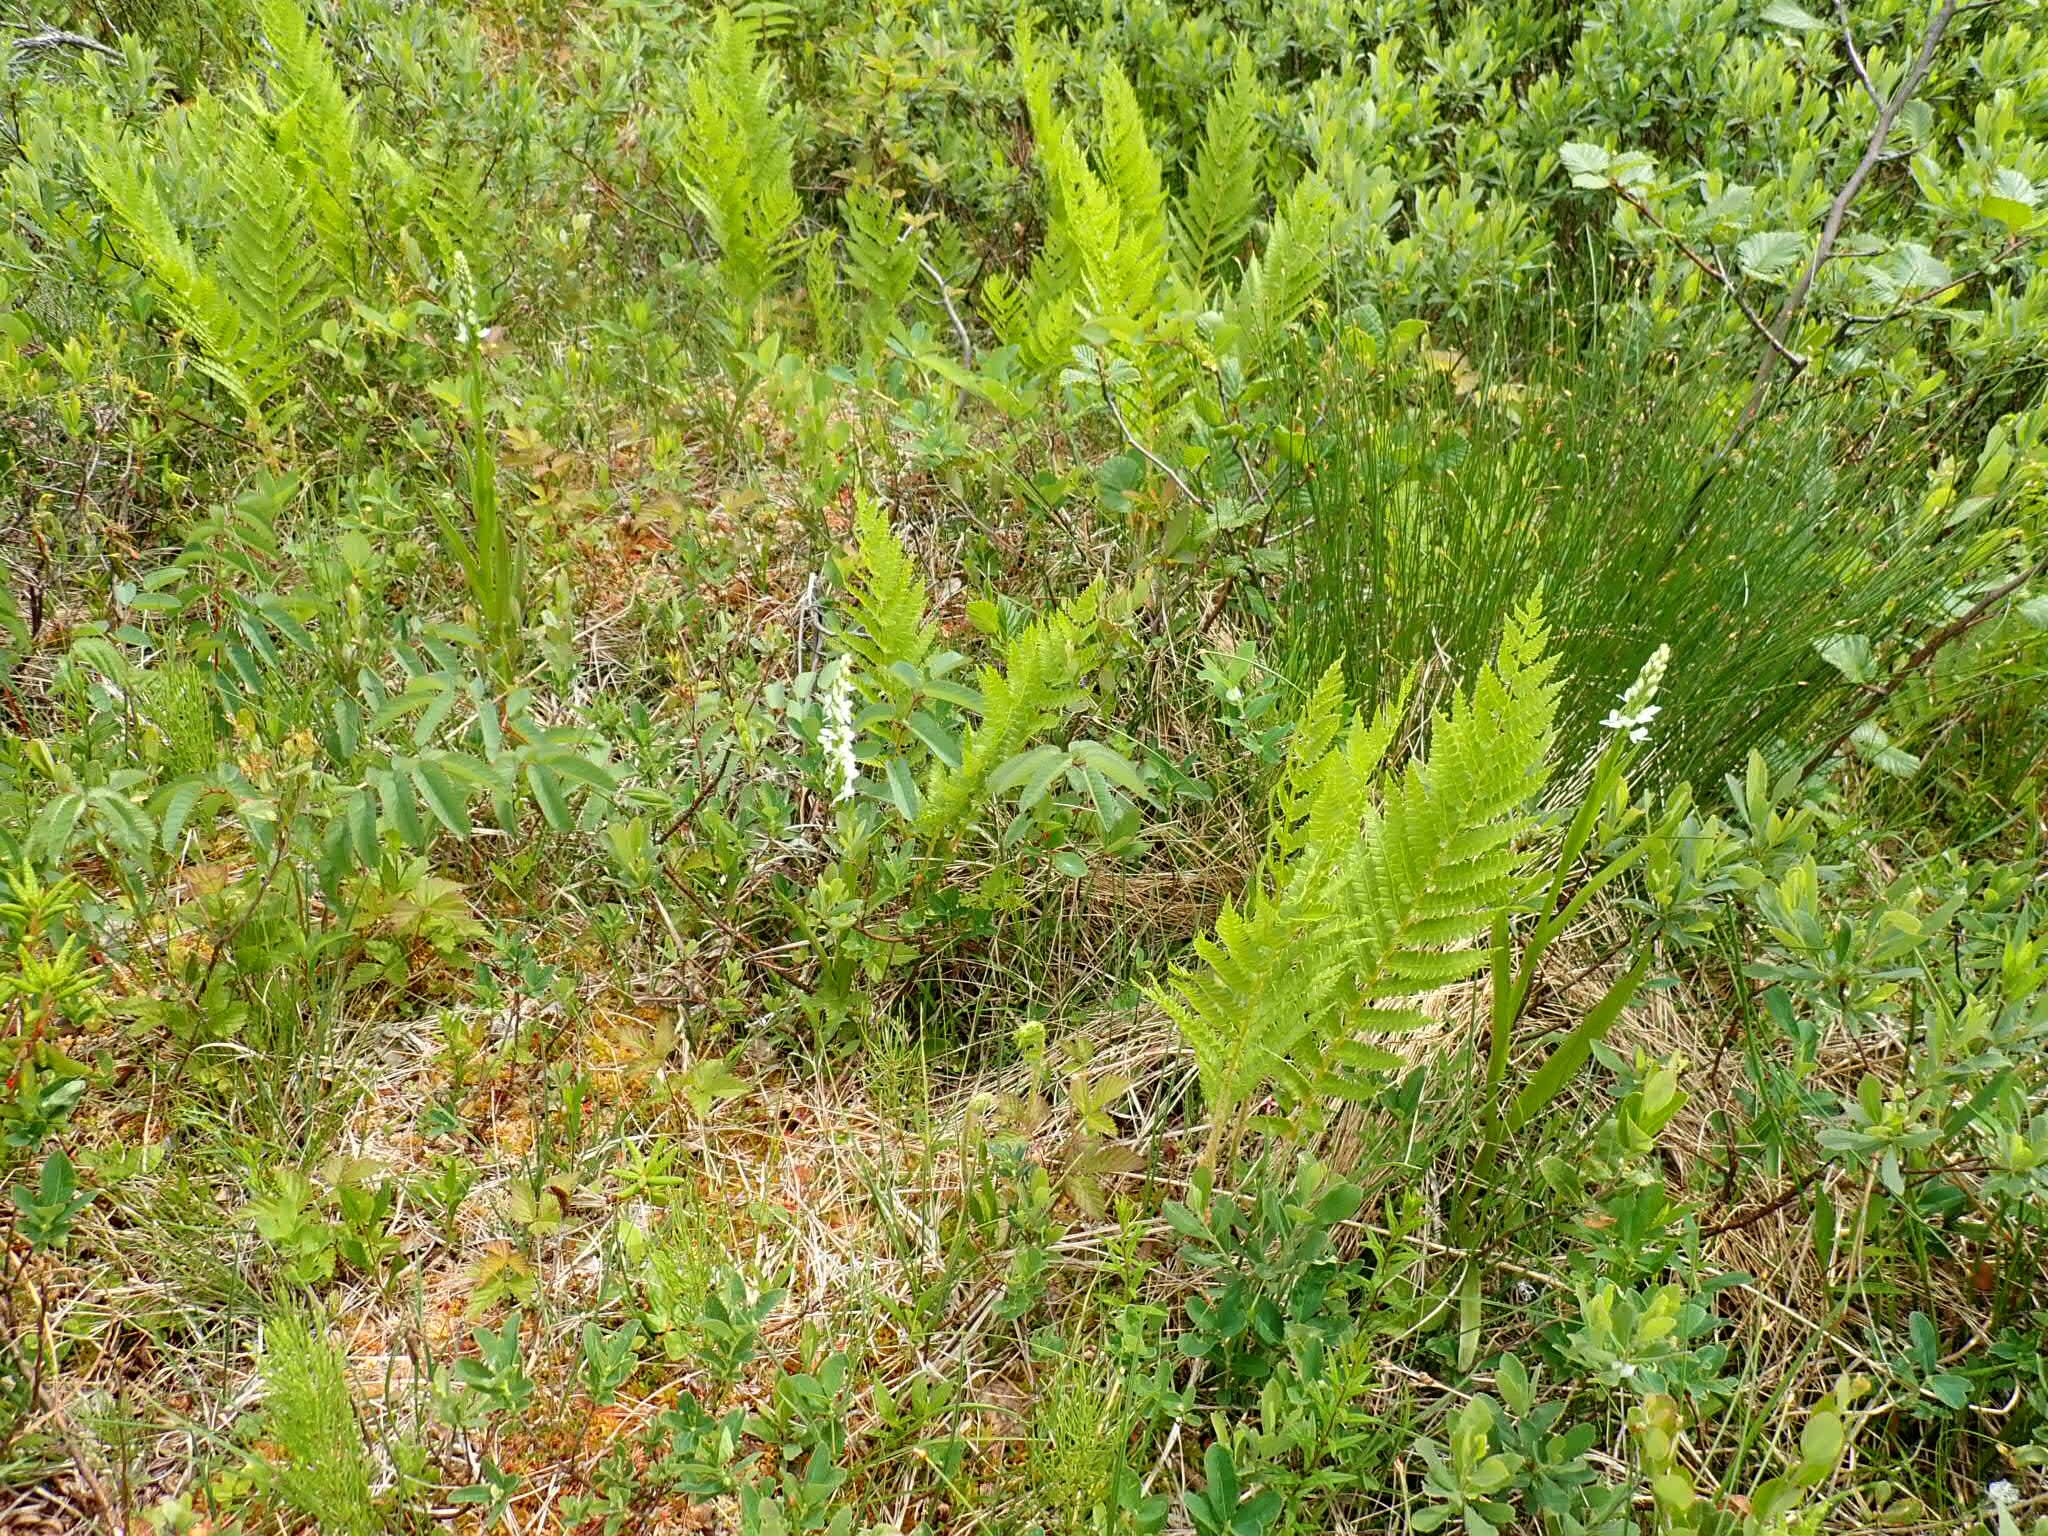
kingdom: Plantae
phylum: Tracheophyta
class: Liliopsida
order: Asparagales
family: Orchidaceae
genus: Platanthera
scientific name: Platanthera dilatata
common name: Bog candles
